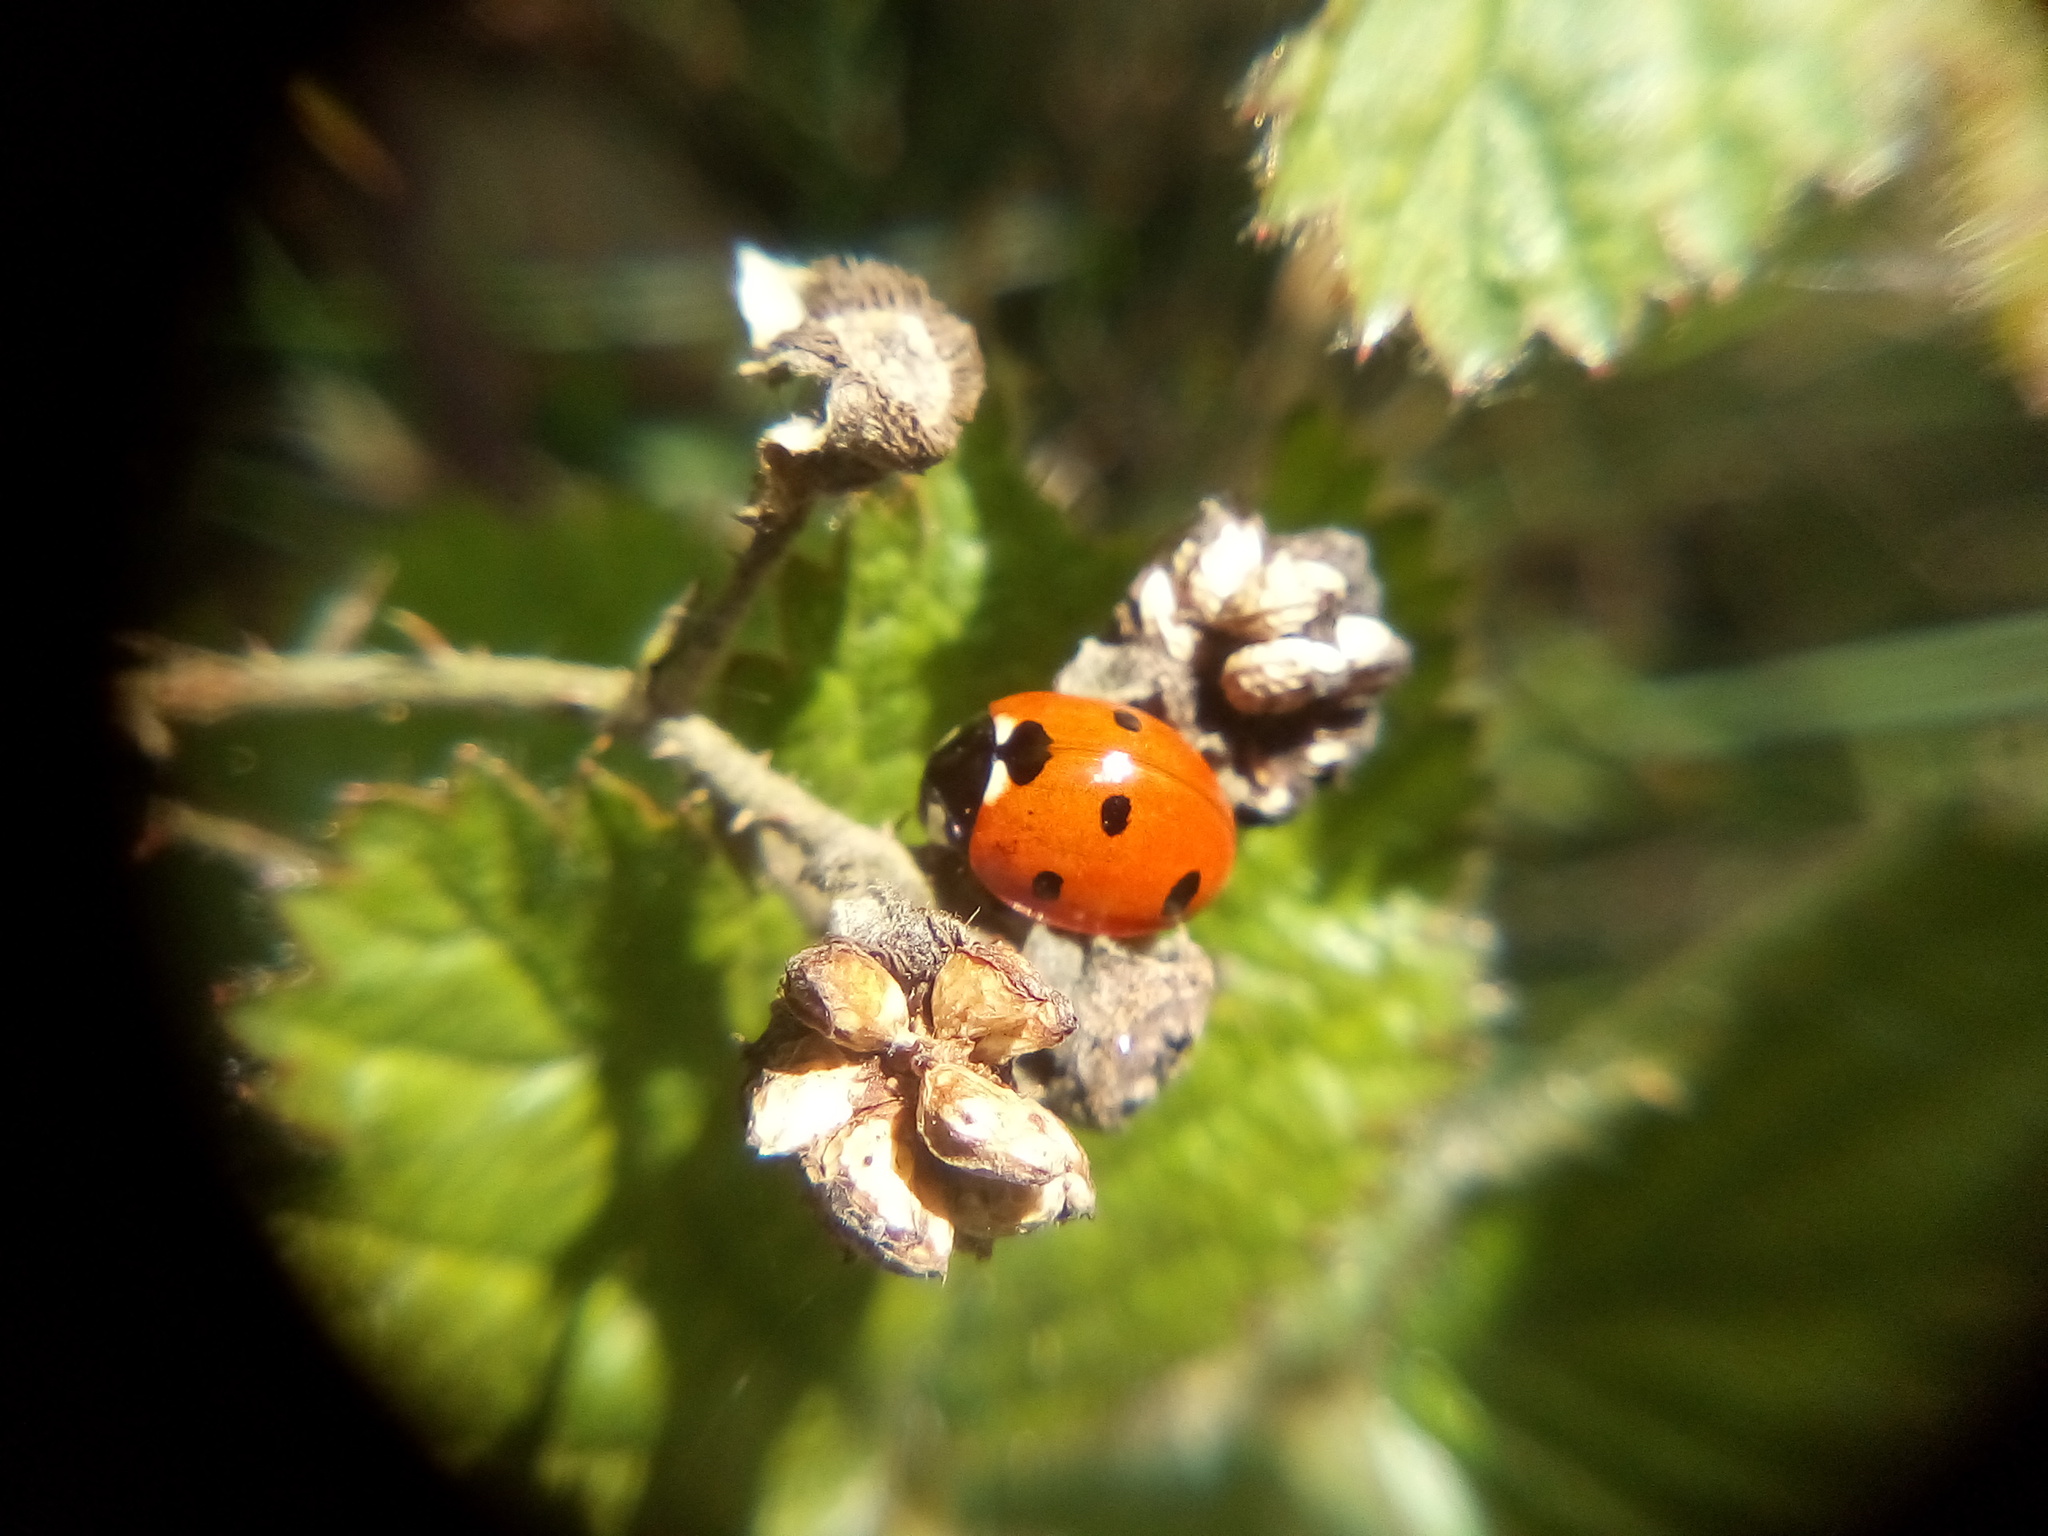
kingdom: Animalia
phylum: Arthropoda
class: Insecta
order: Coleoptera
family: Coccinellidae
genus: Coccinella
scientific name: Coccinella septempunctata
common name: Sevenspotted lady beetle
